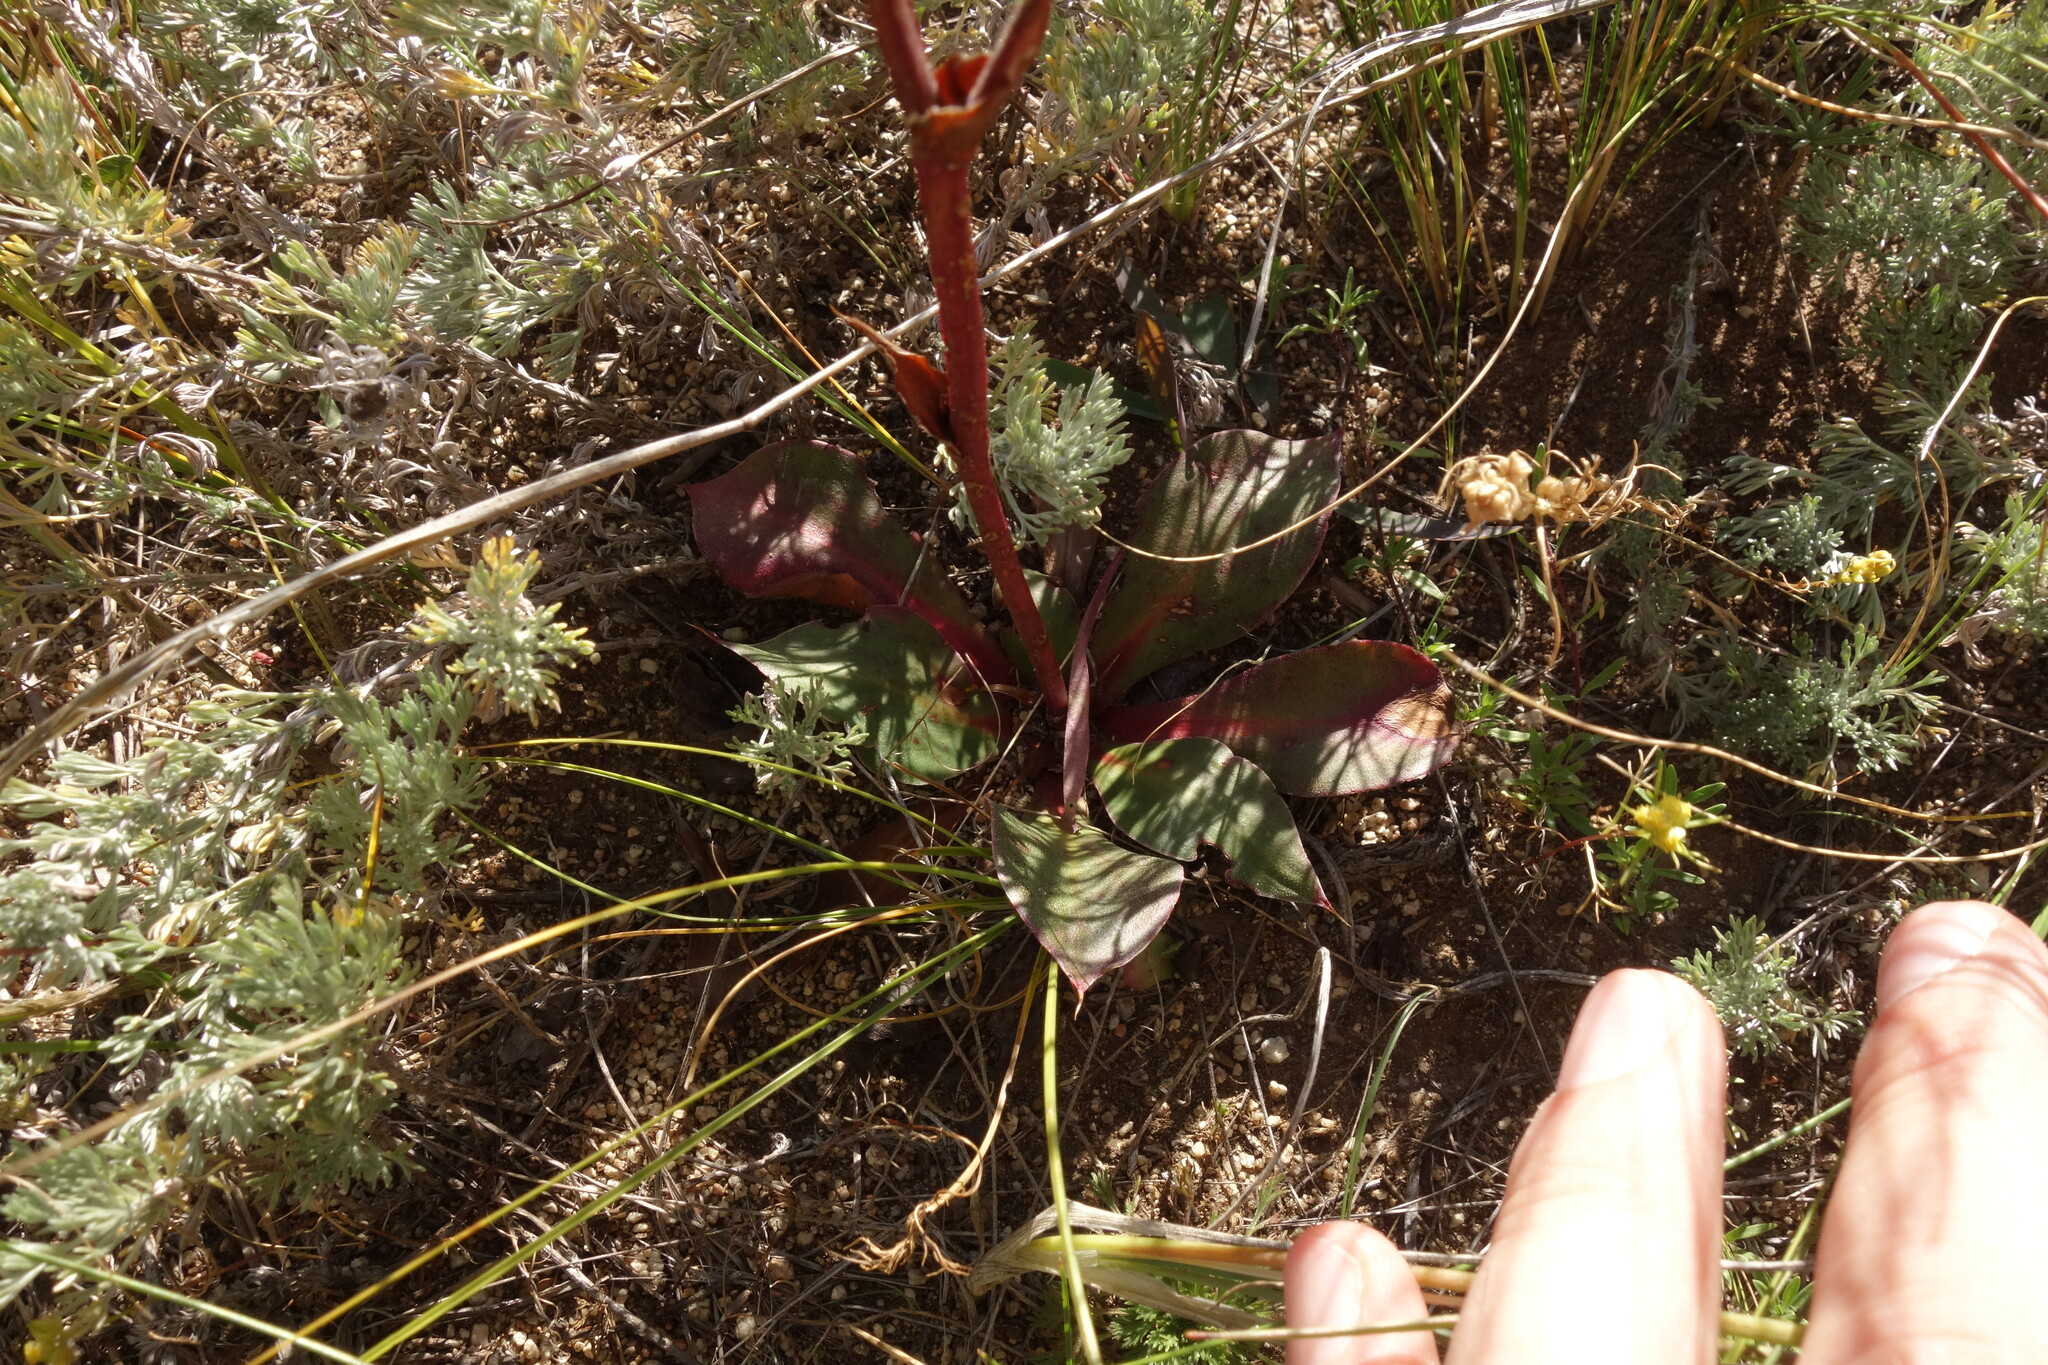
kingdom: Plantae
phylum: Tracheophyta
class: Magnoliopsida
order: Caryophyllales
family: Plumbaginaceae
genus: Goniolimon
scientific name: Goniolimon speciosum
